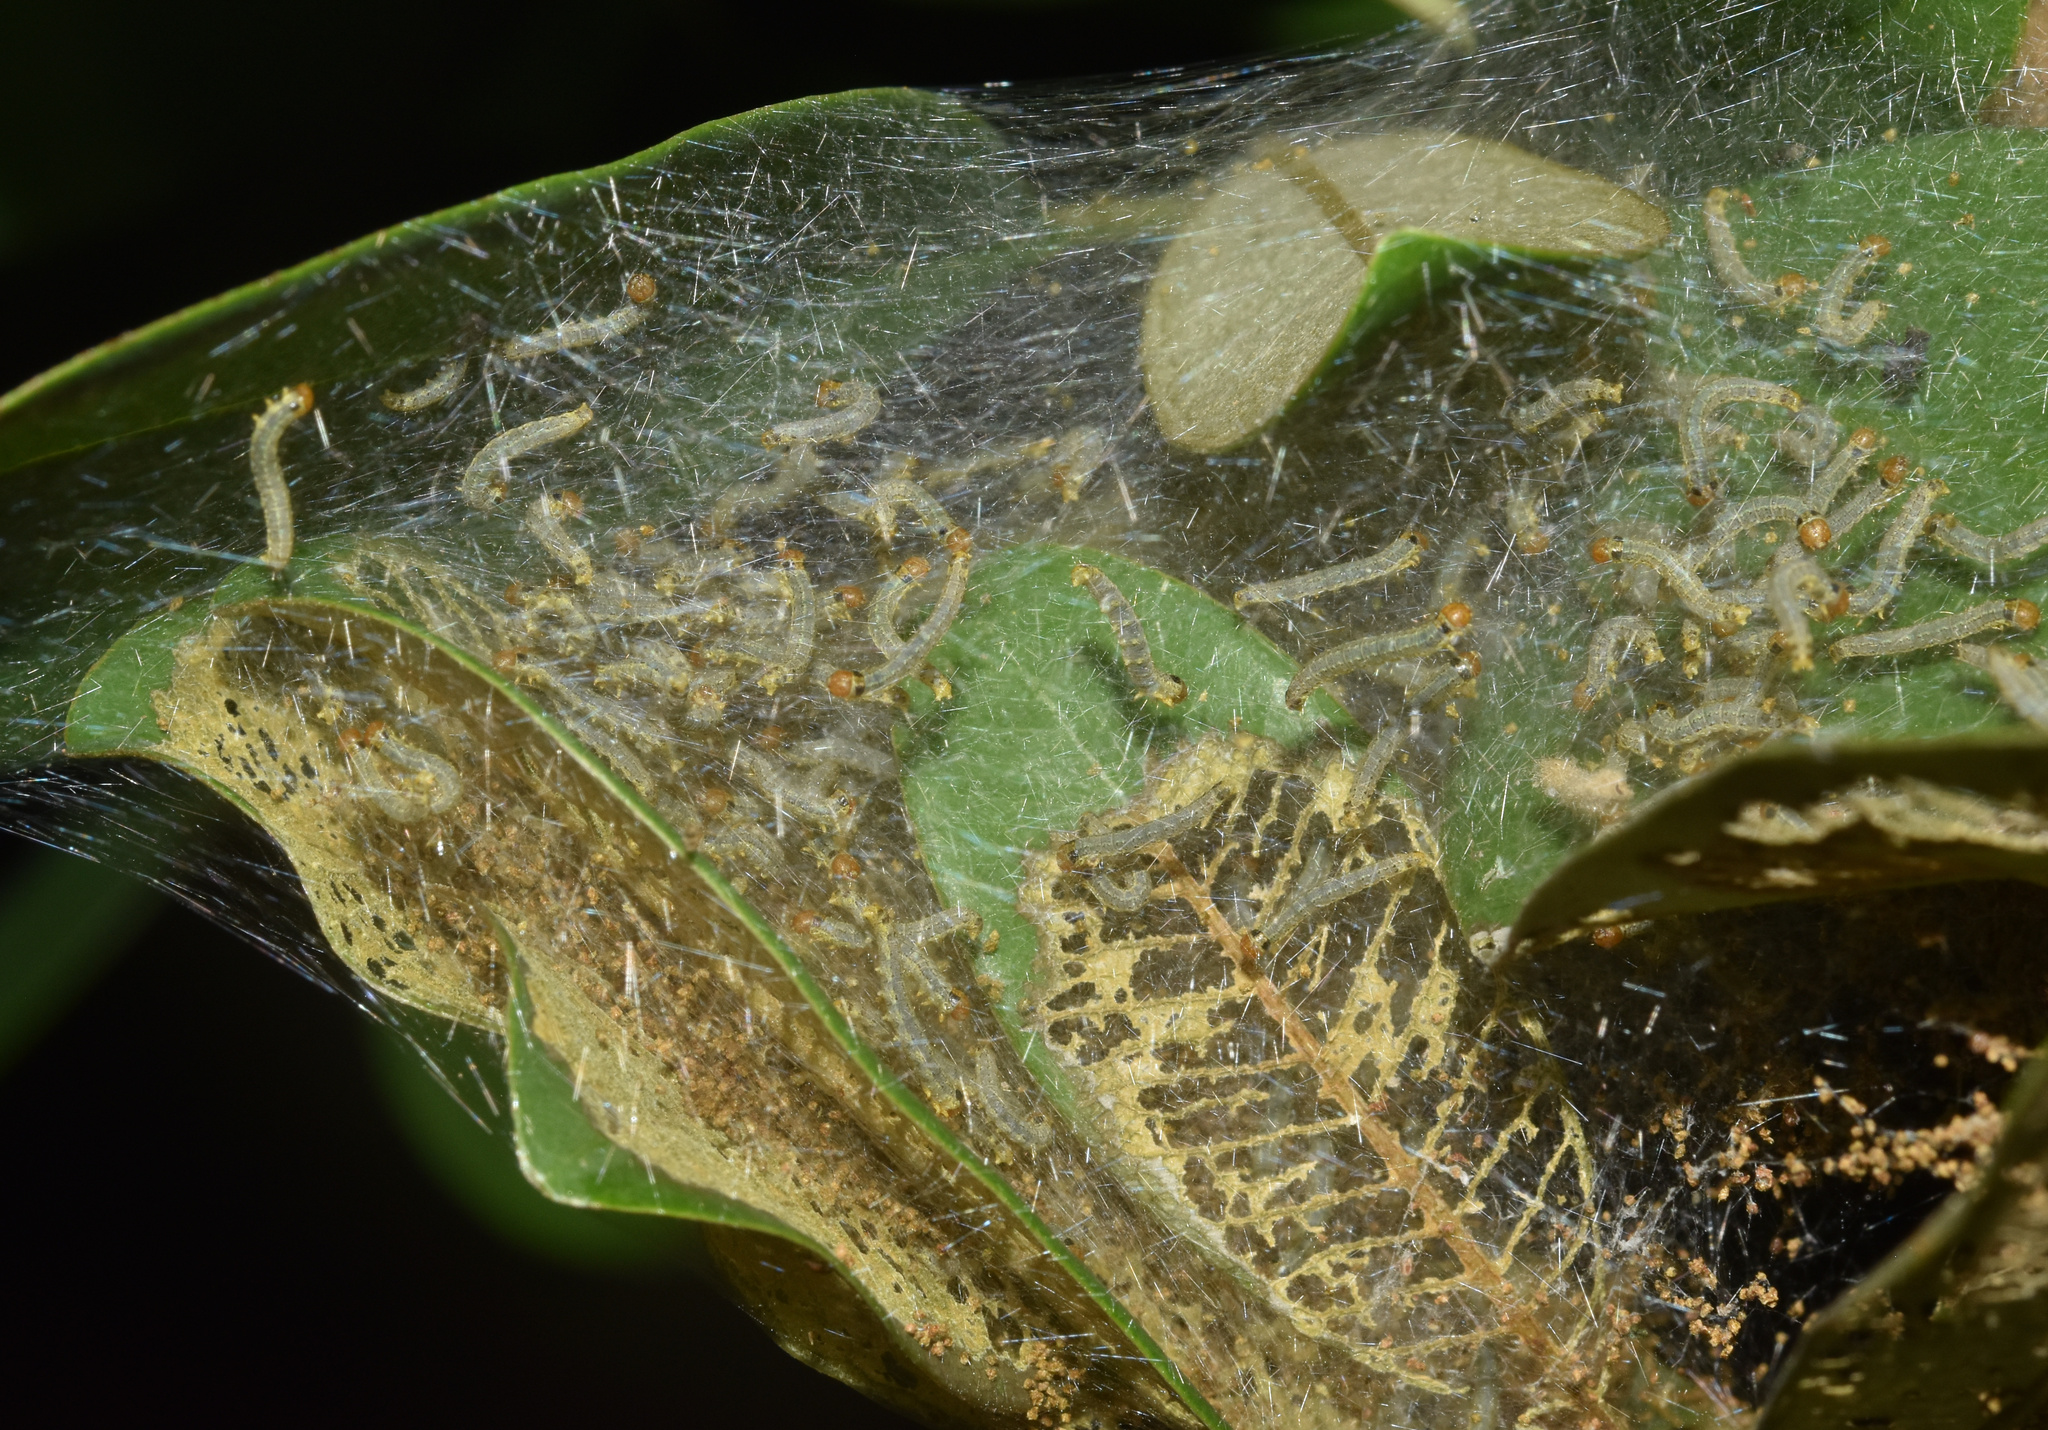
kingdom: Animalia
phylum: Arthropoda
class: Insecta
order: Lepidoptera
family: Pyralidae
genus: Zitha
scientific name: Zitha carnicolor
